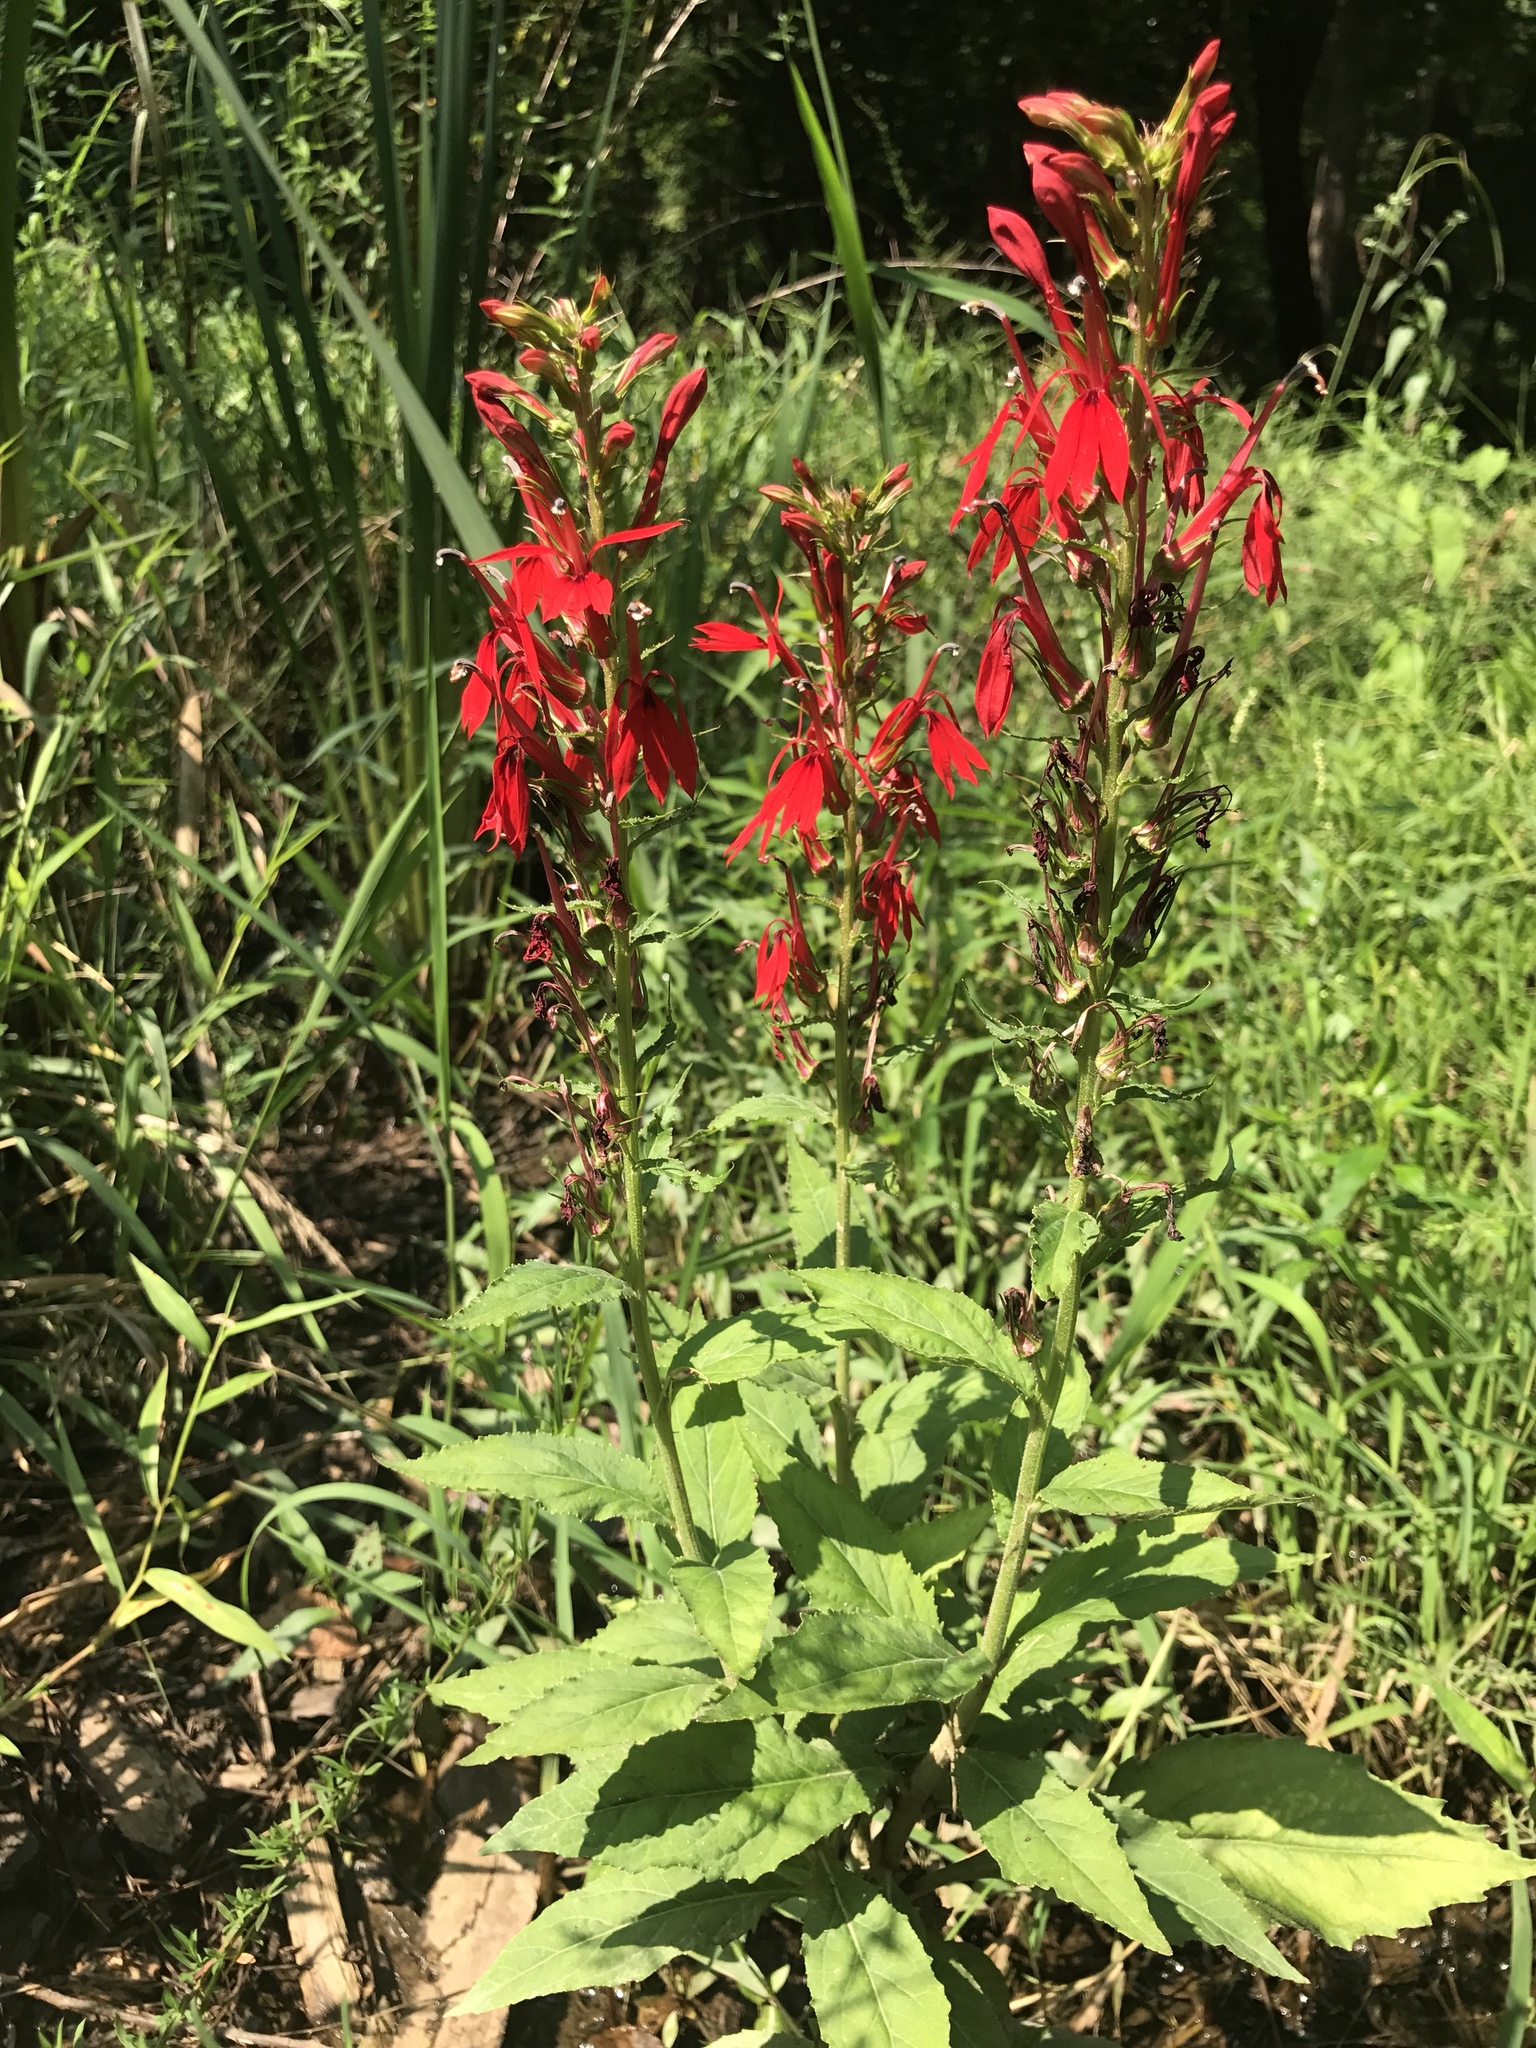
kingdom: Plantae
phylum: Tracheophyta
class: Magnoliopsida
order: Asterales
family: Campanulaceae
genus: Lobelia
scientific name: Lobelia cardinalis
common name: Cardinal flower
